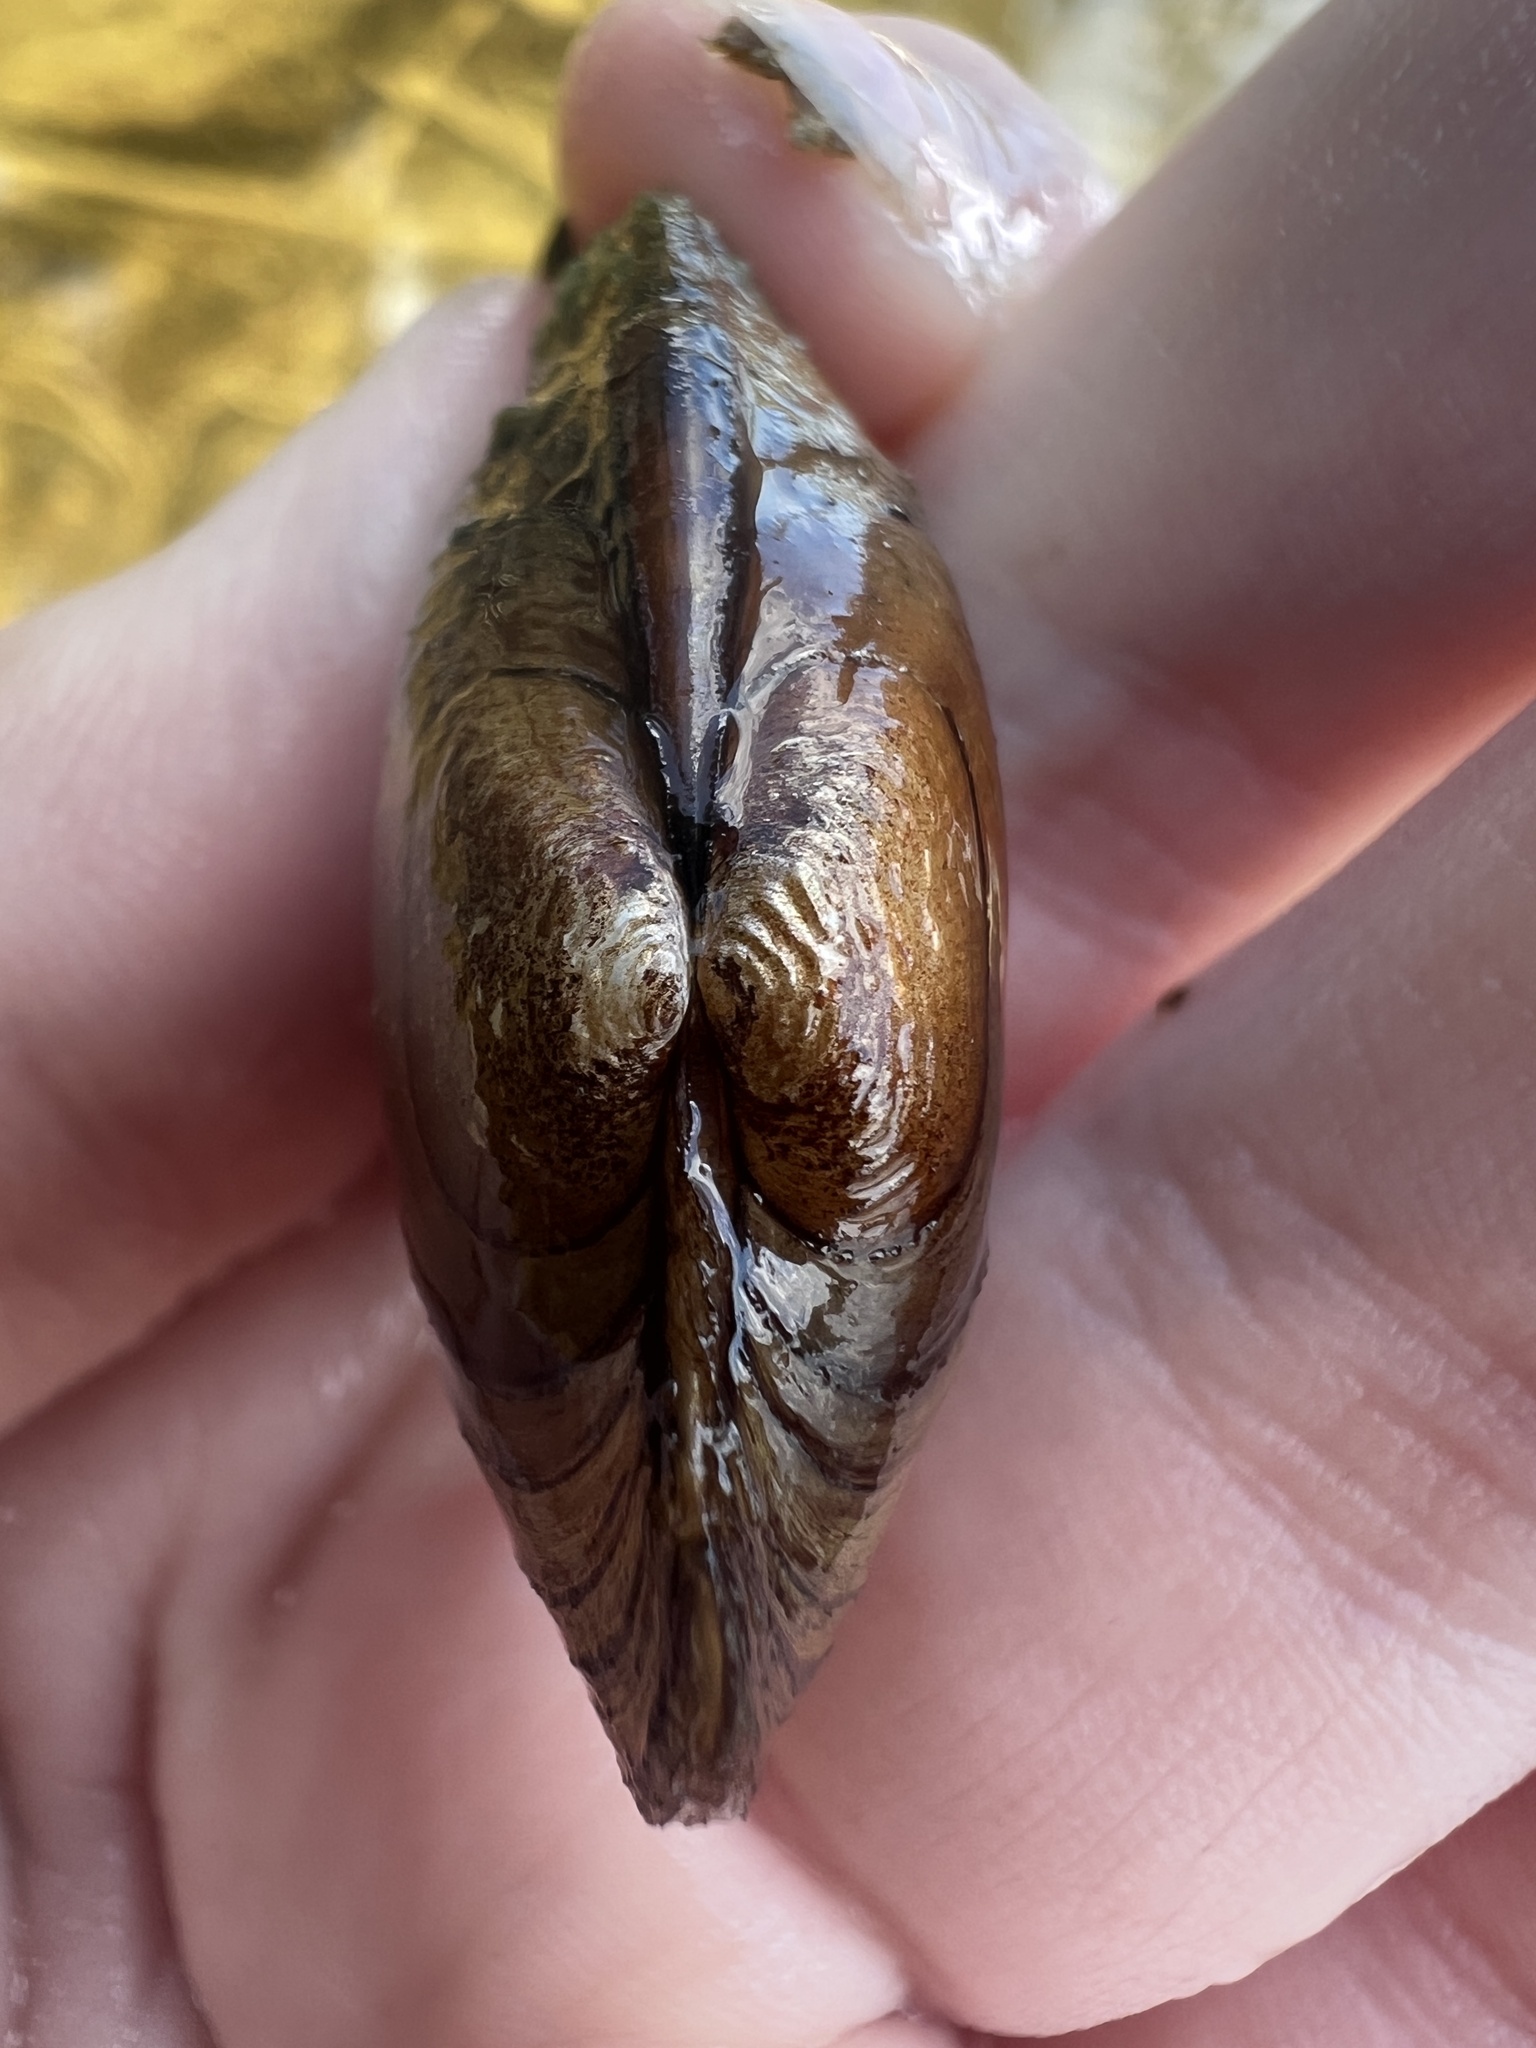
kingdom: Animalia
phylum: Mollusca
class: Bivalvia
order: Unionida
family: Unionidae
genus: Lampsilis
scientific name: Lampsilis siliquoidea
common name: Fatmucket
